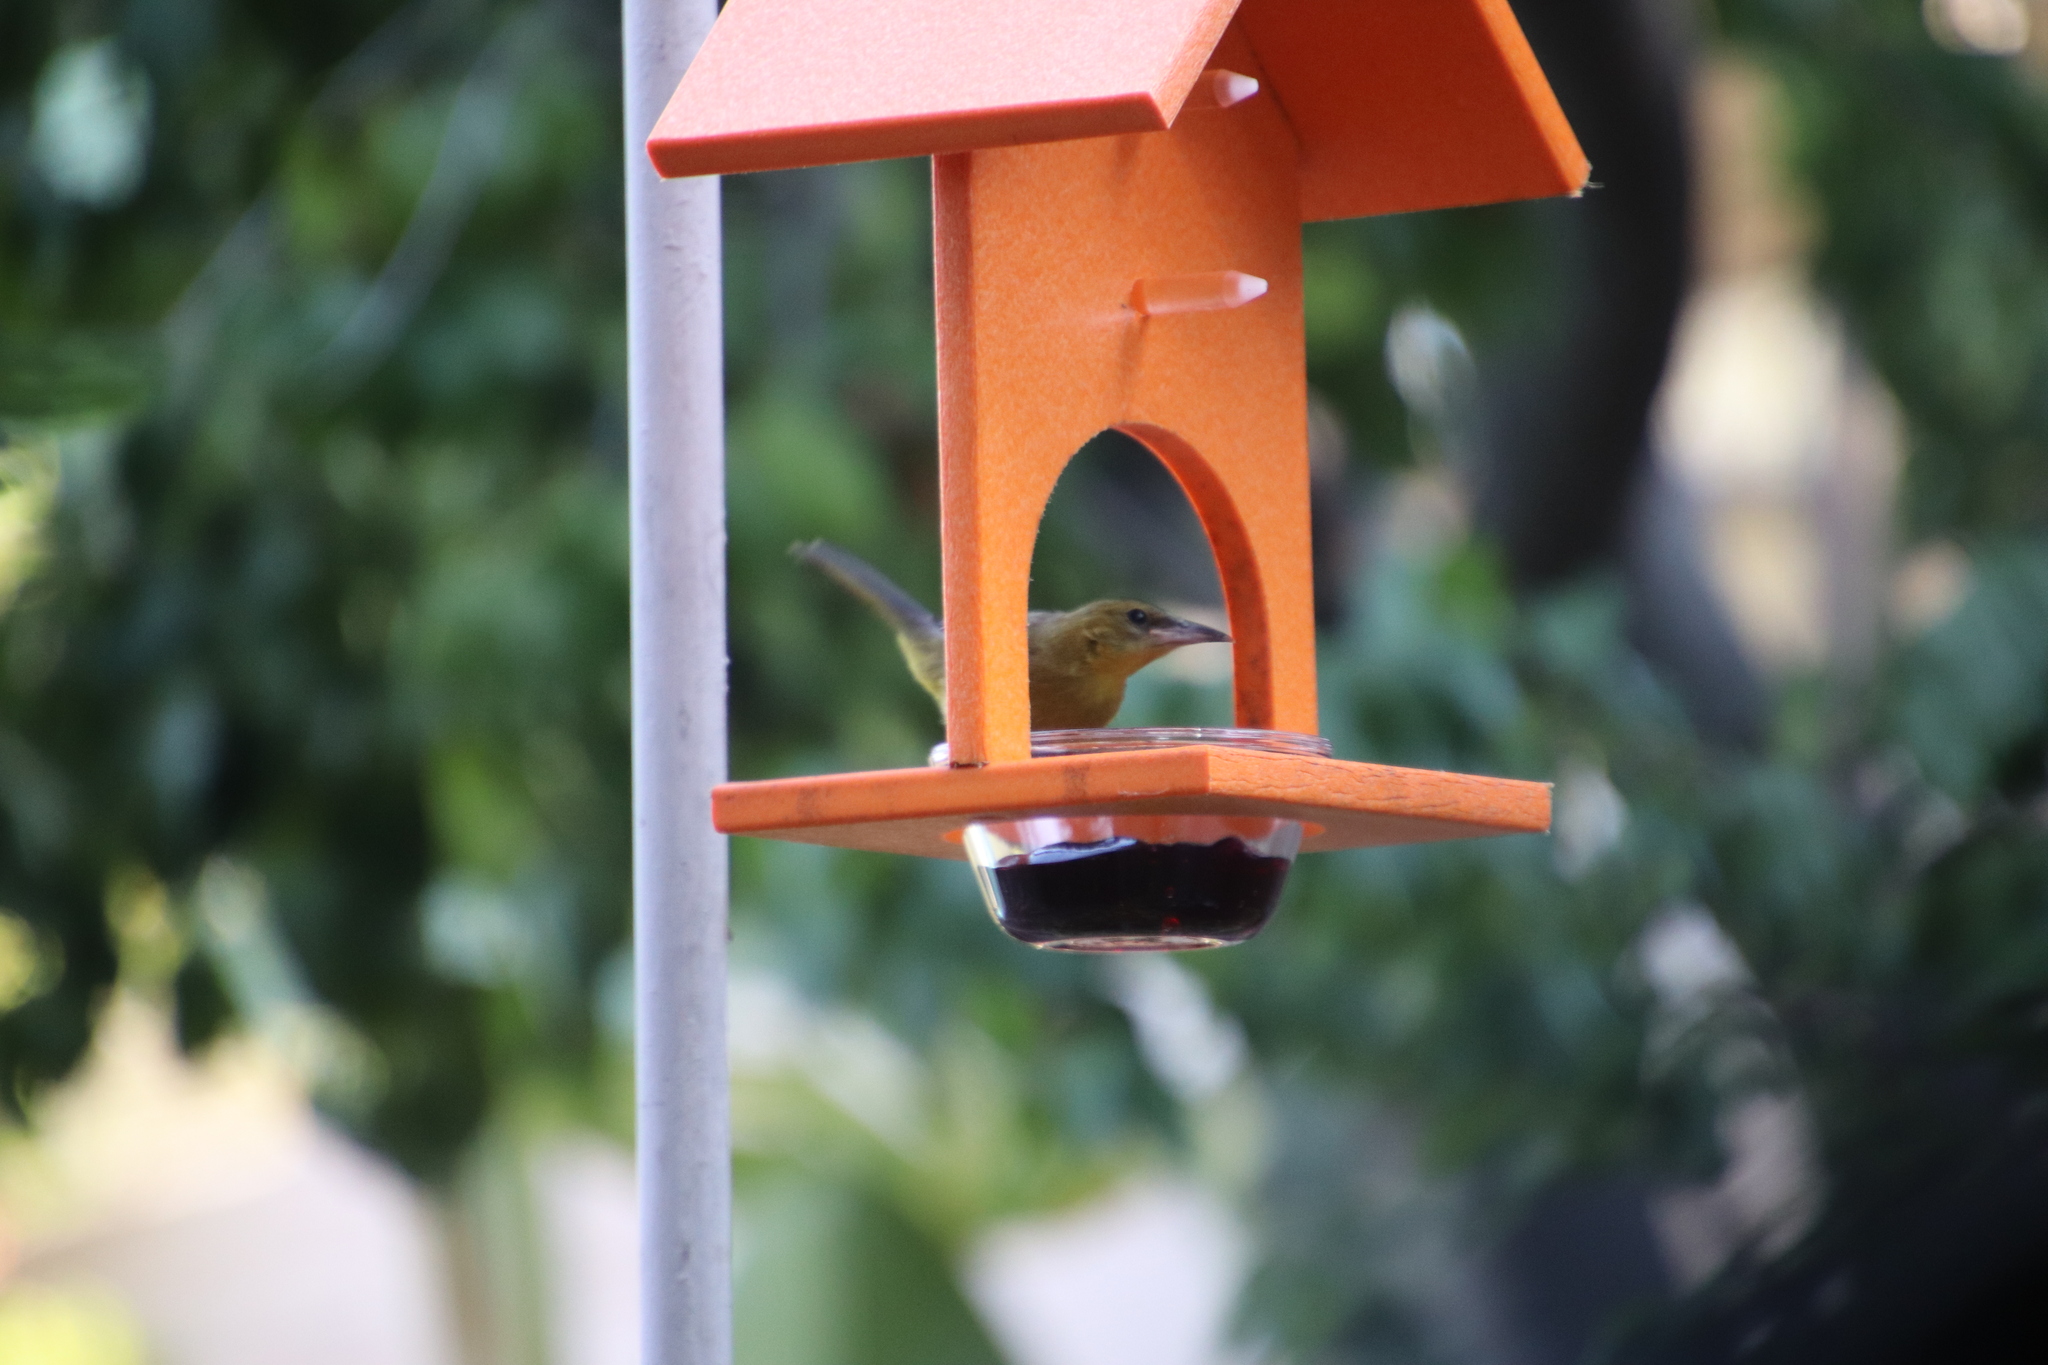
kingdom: Animalia
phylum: Chordata
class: Aves
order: Passeriformes
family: Icteridae
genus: Icterus
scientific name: Icterus cucullatus
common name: Hooded oriole
